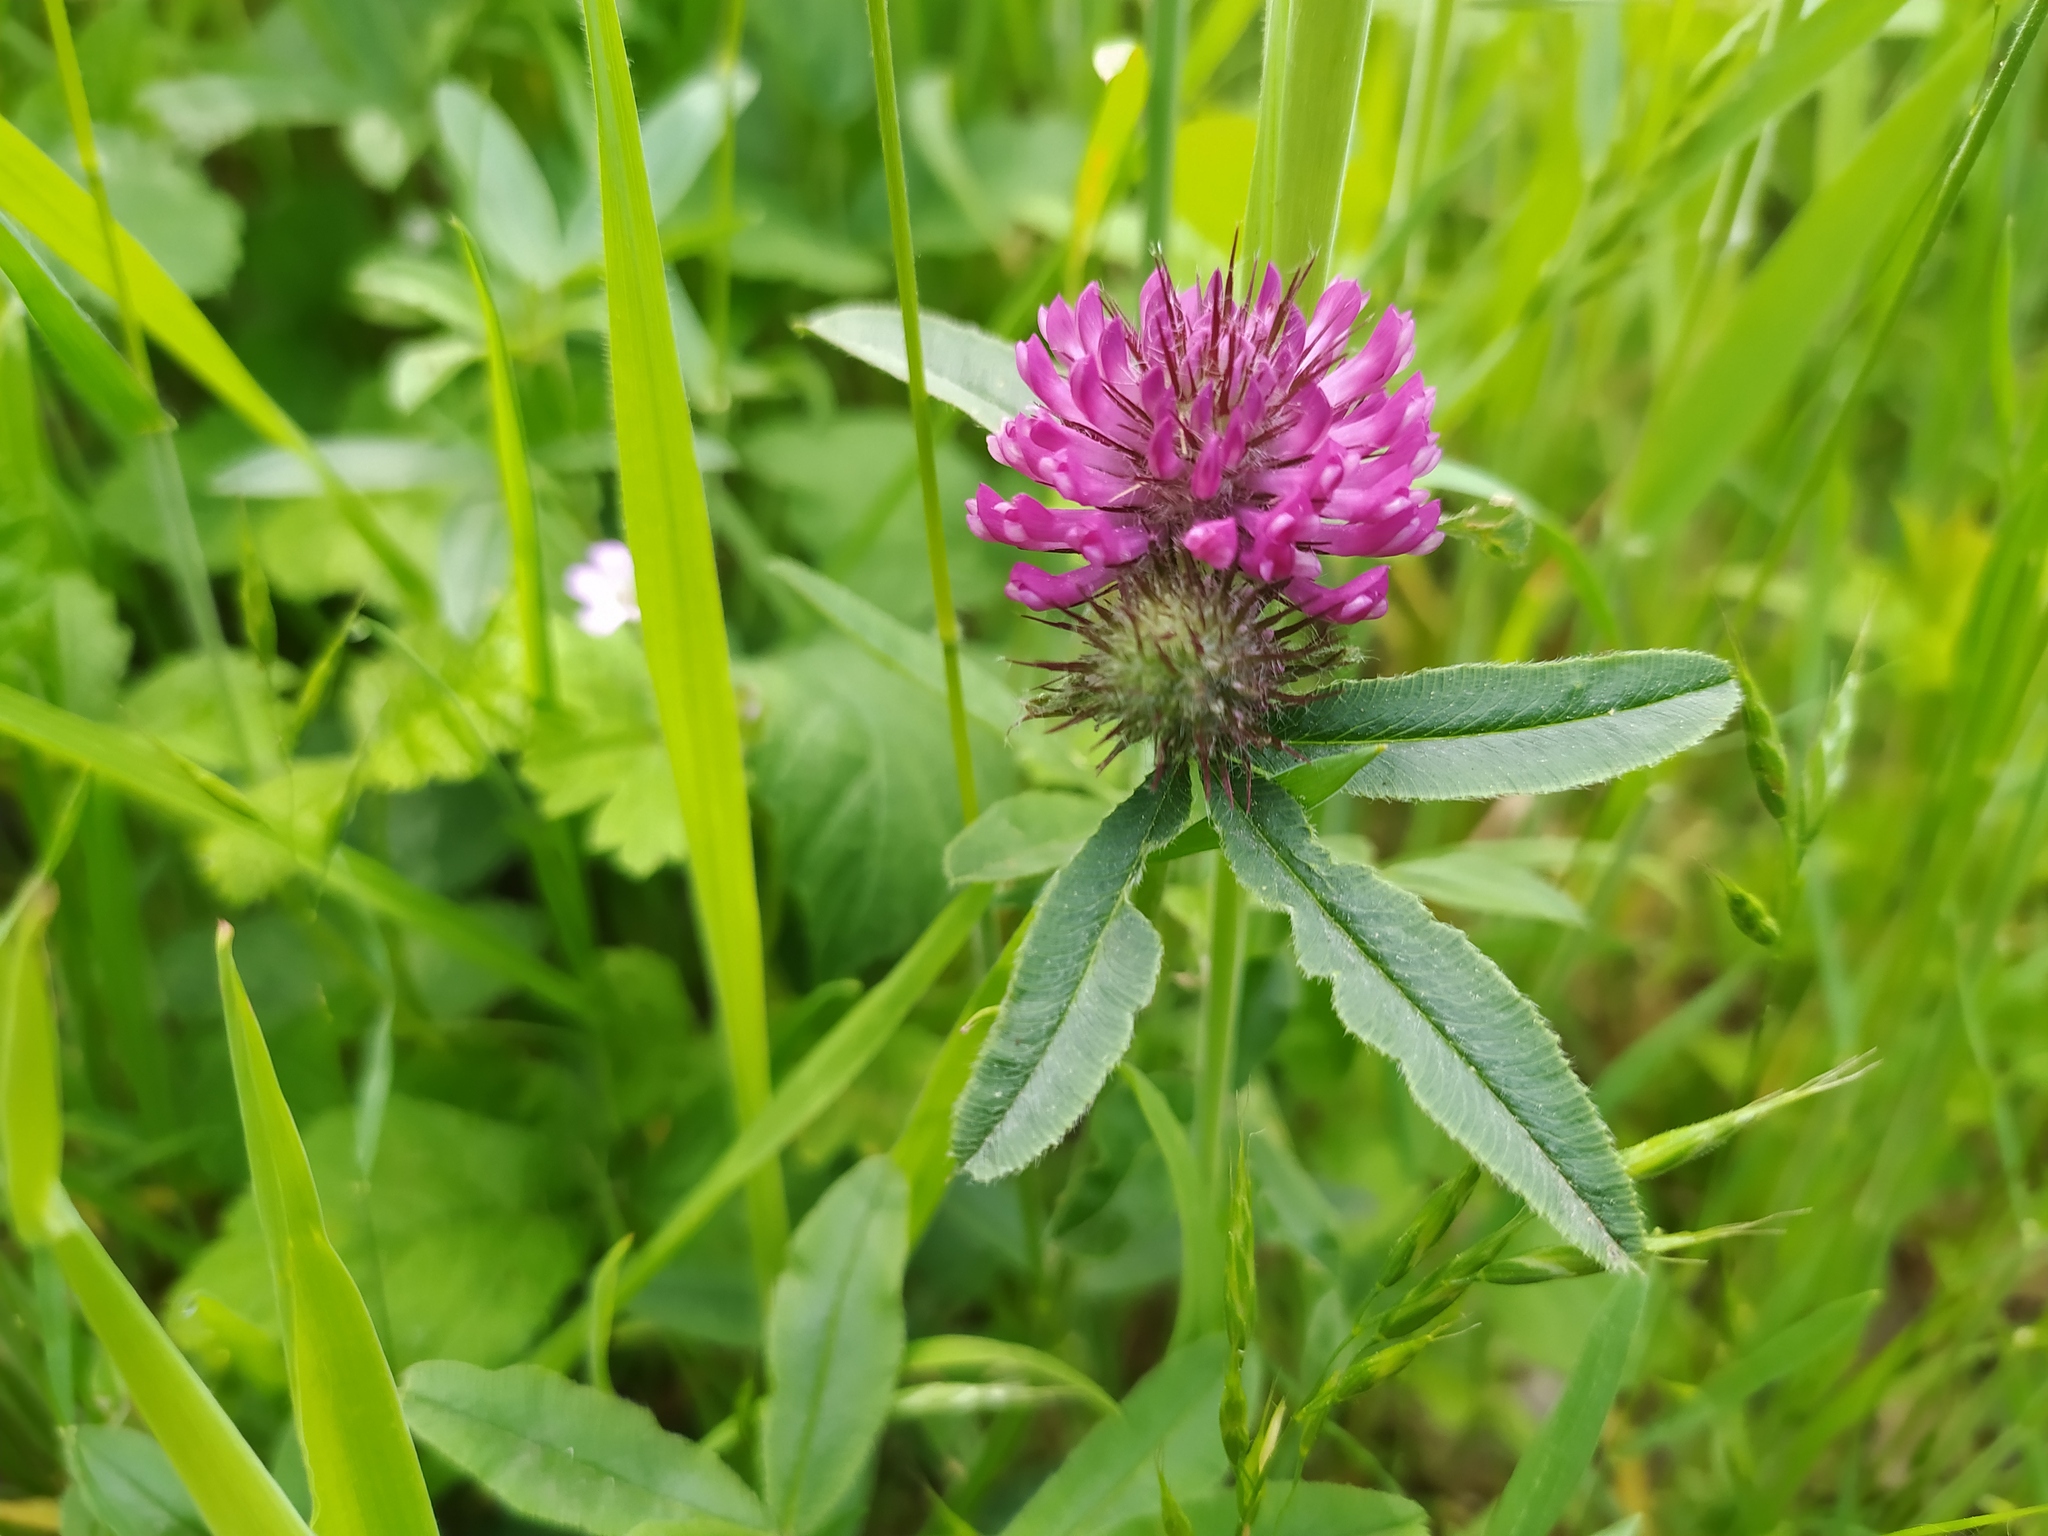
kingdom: Plantae
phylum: Tracheophyta
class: Magnoliopsida
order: Fabales
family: Fabaceae
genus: Trifolium
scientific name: Trifolium alpestre
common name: Owl-head clover
